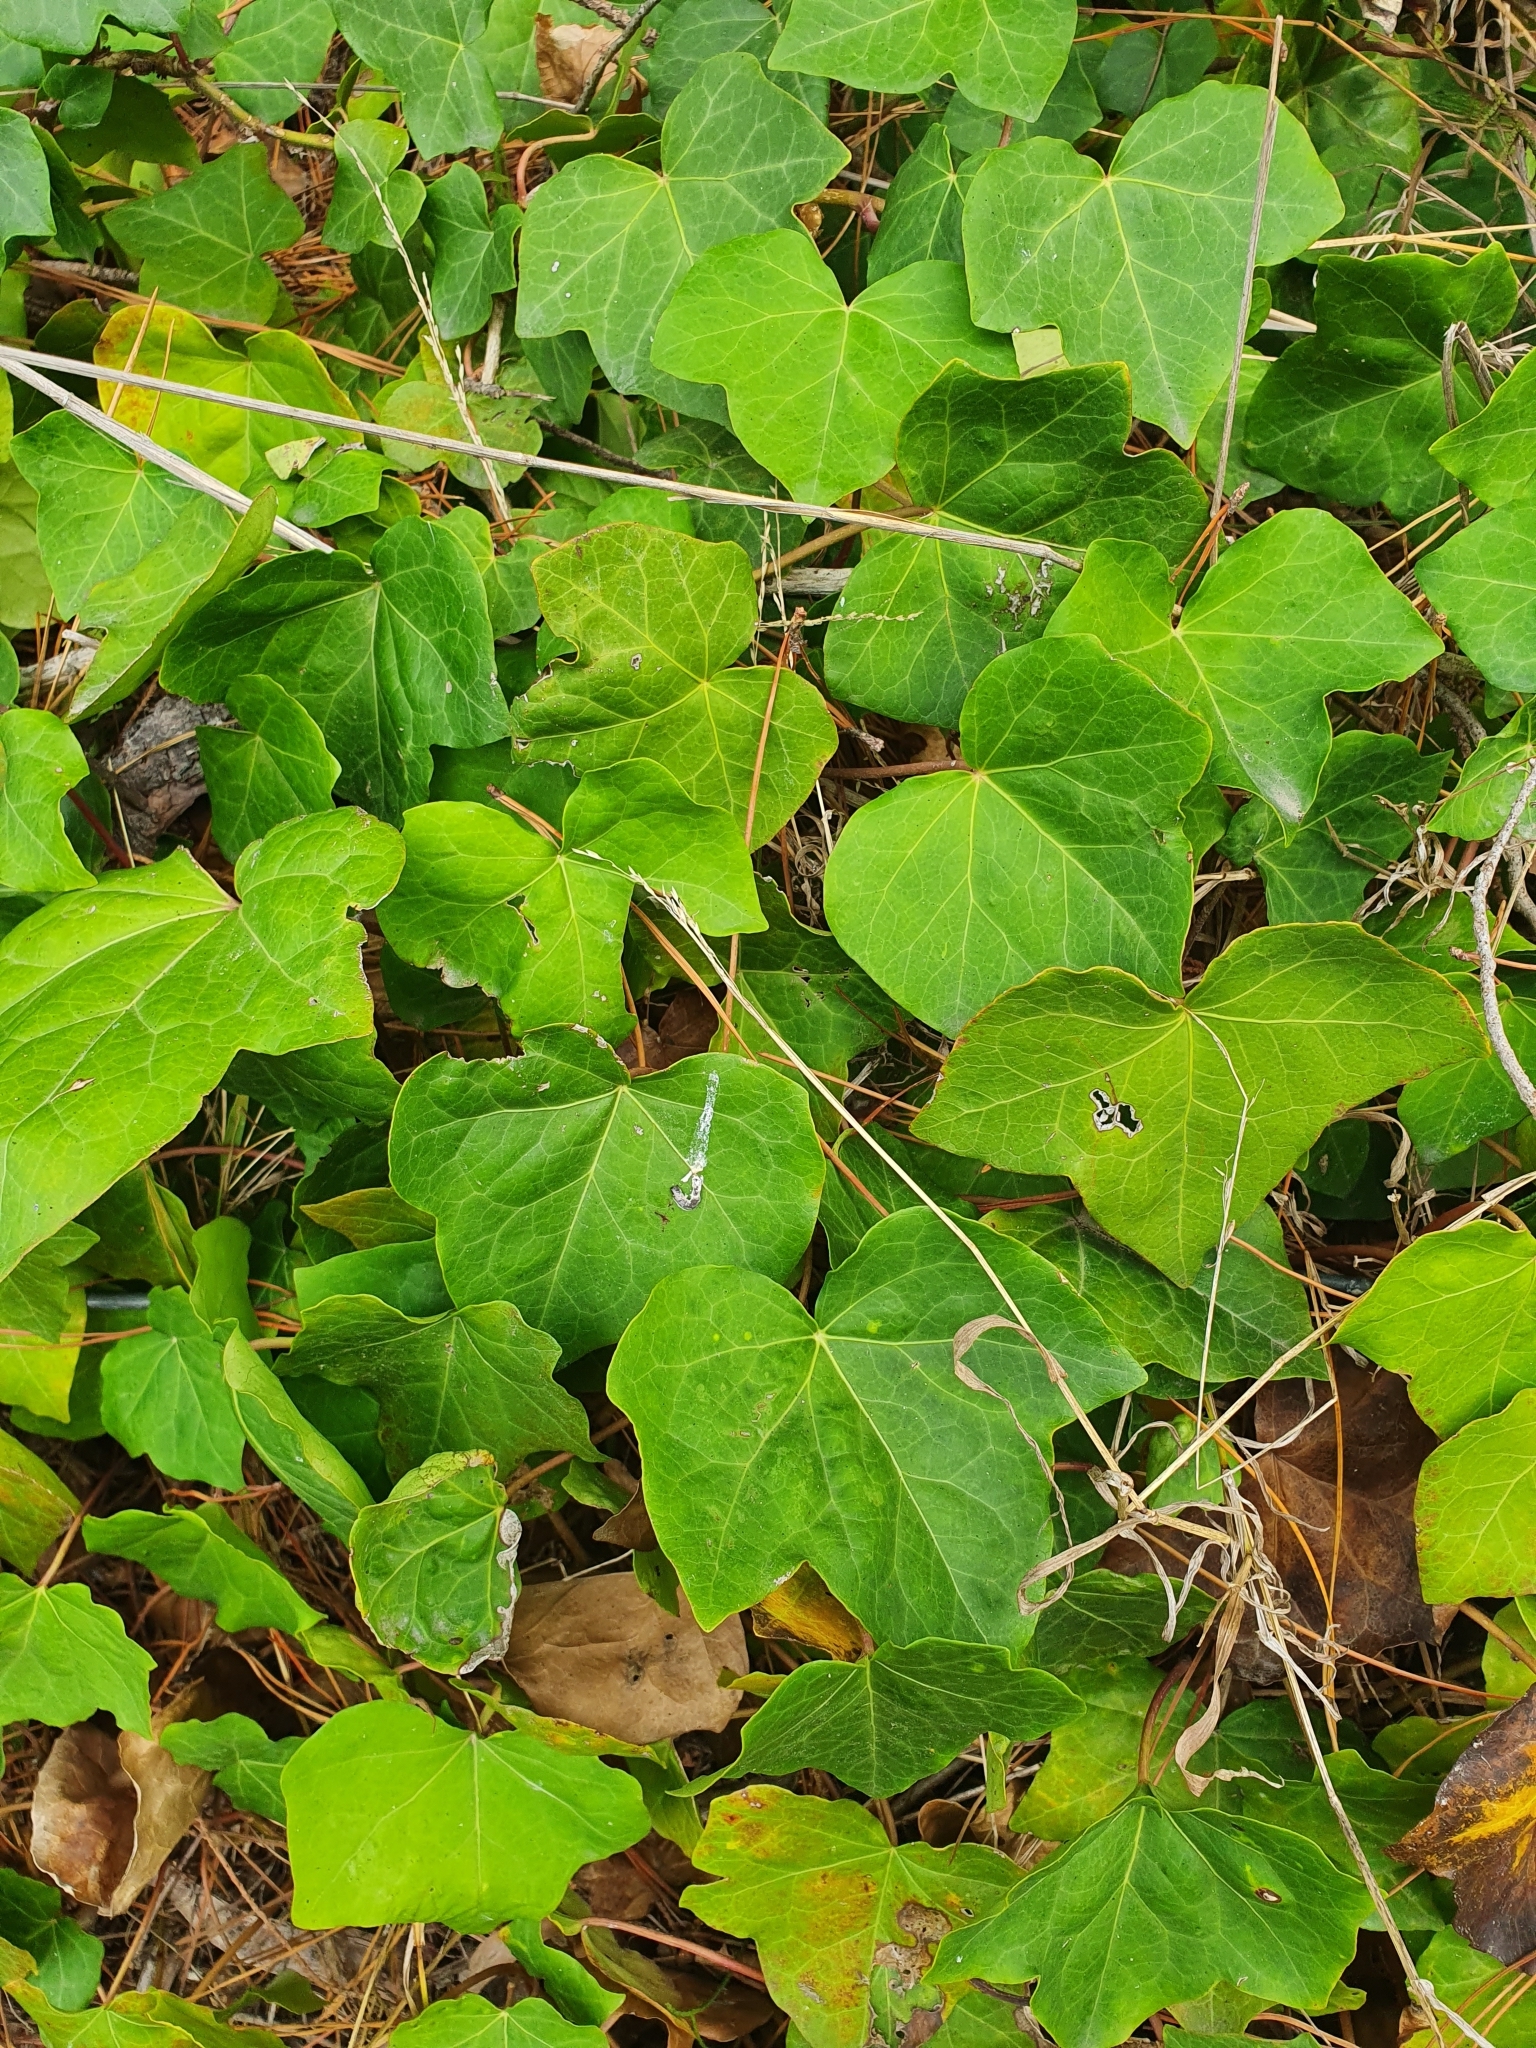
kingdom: Plantae
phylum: Tracheophyta
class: Magnoliopsida
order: Apiales
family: Araliaceae
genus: Hedera
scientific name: Hedera helix
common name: Ivy
